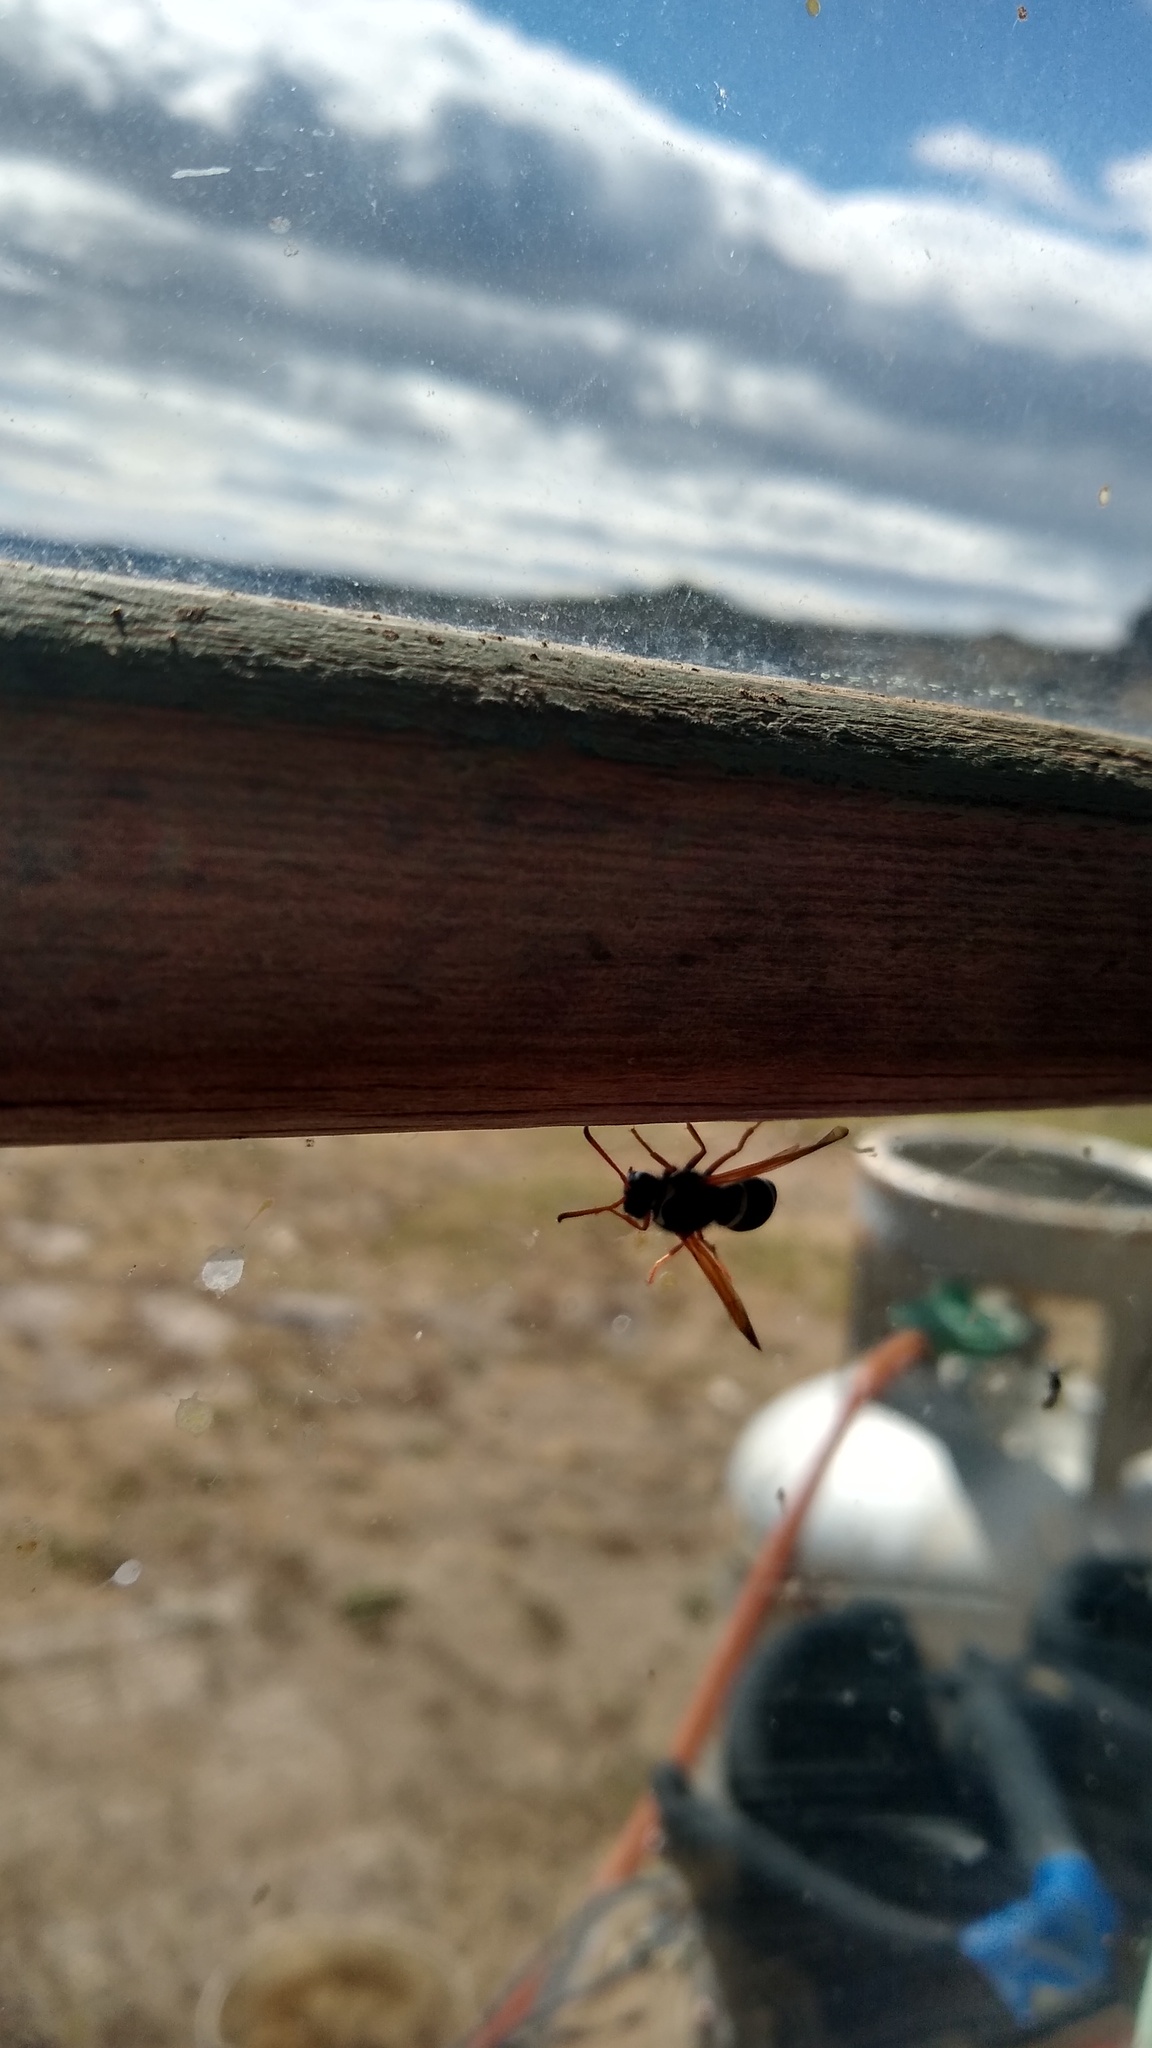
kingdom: Animalia
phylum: Arthropoda
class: Insecta
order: Hymenoptera
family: Vespidae
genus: Hypodynerus
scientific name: Hypodynerus labiatus
